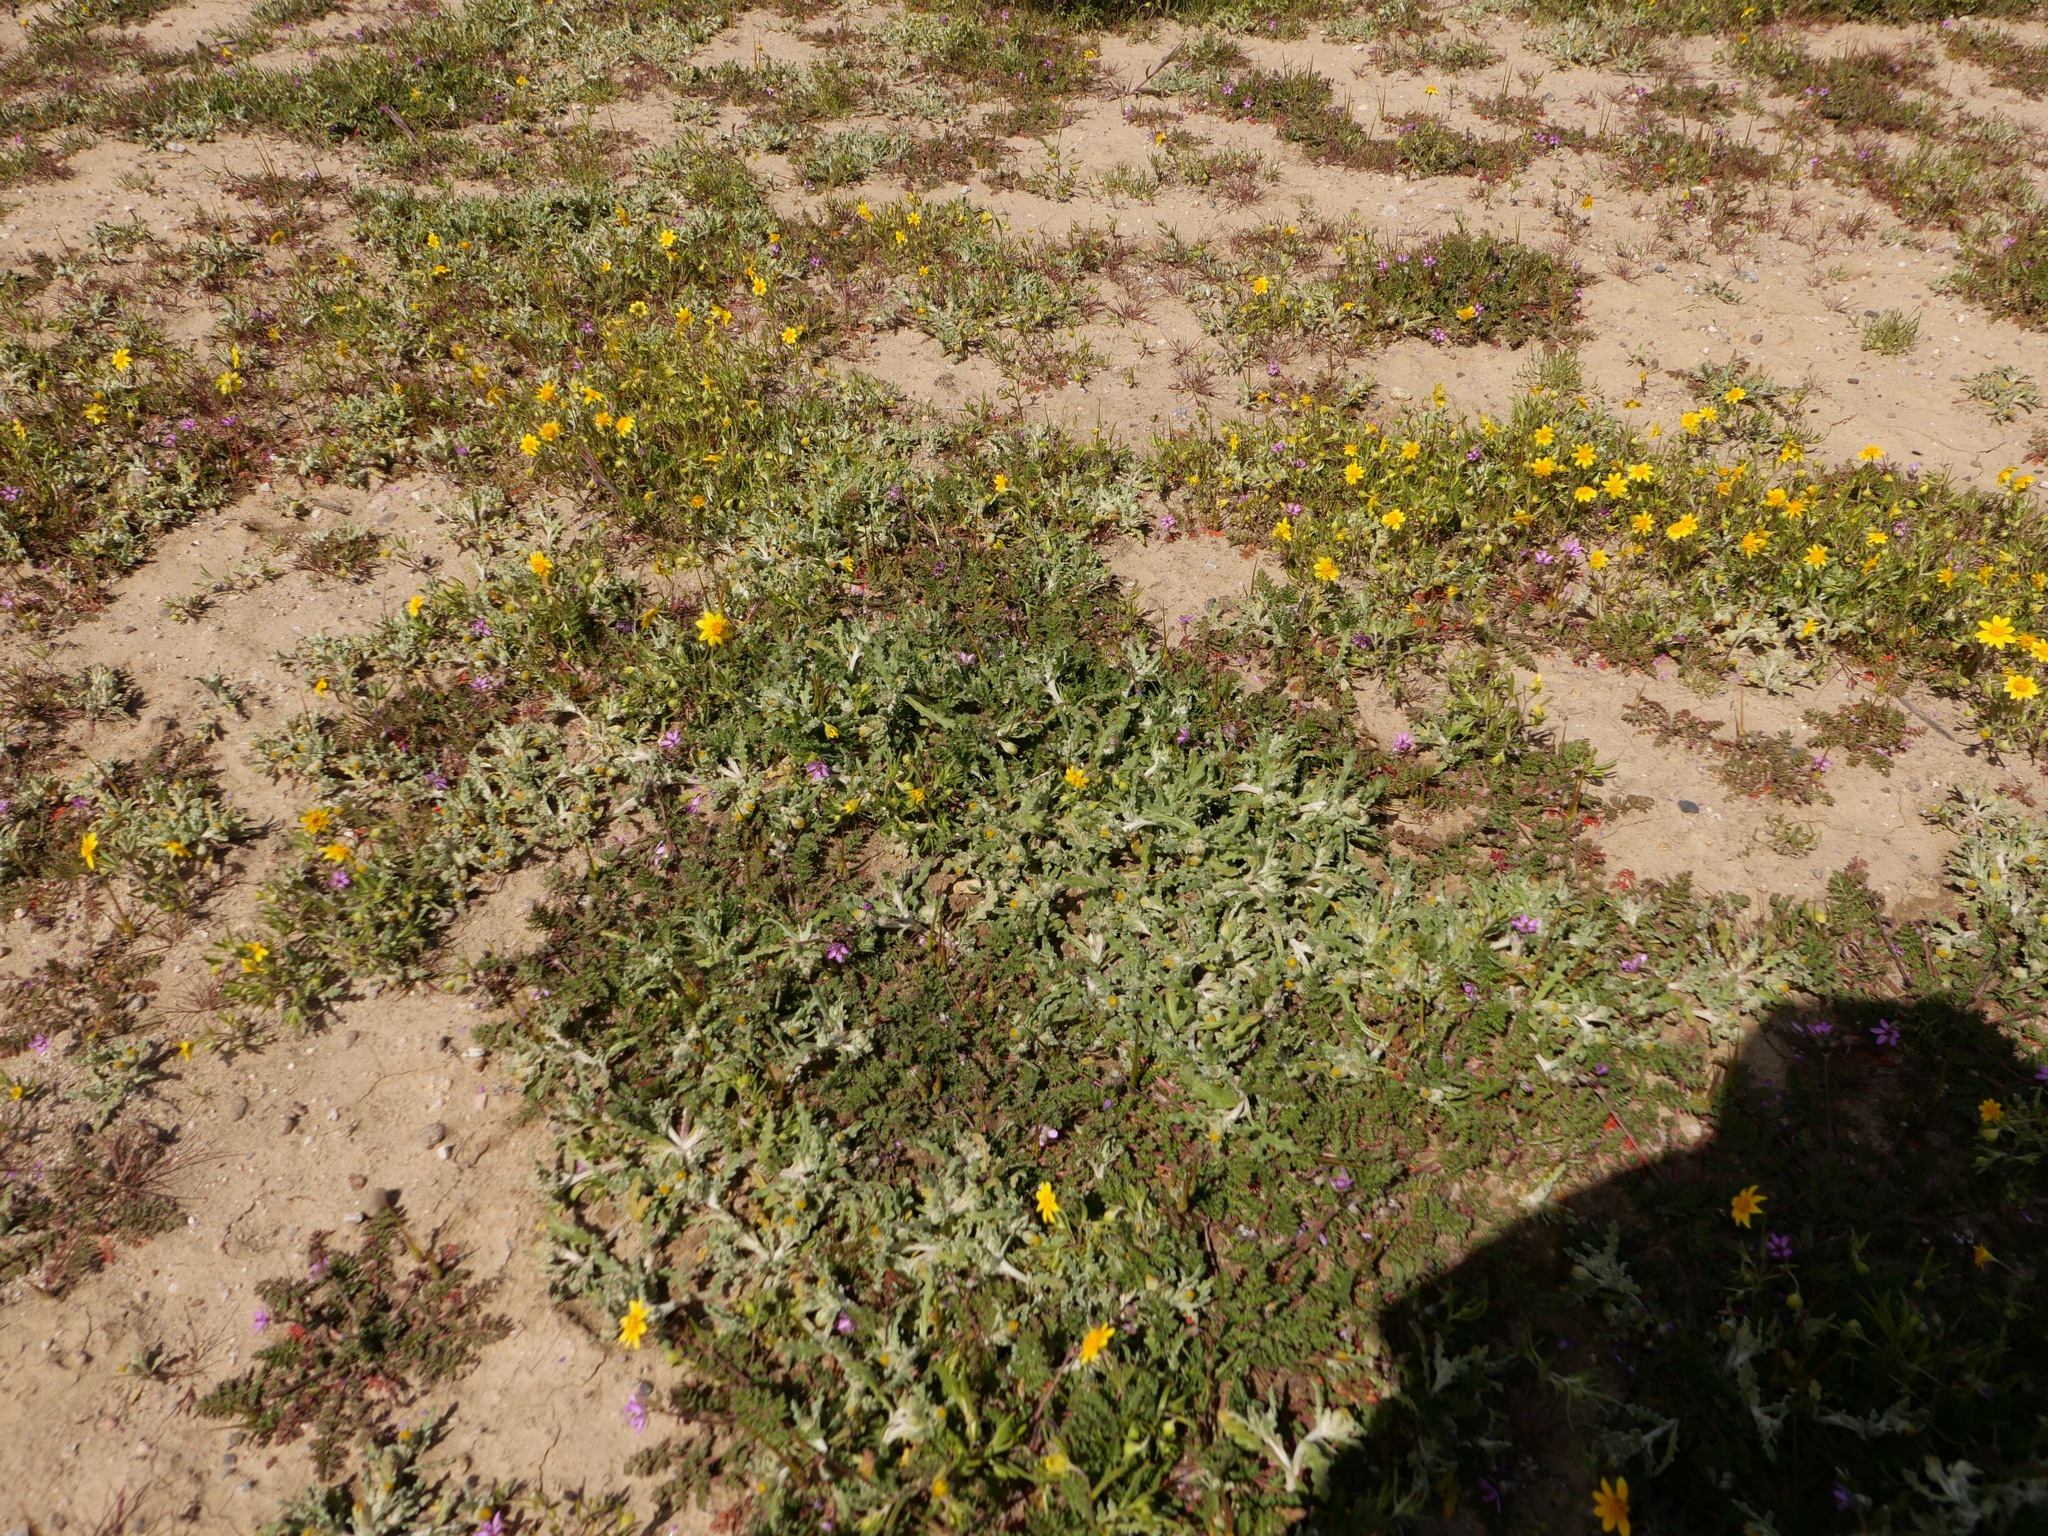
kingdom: Plantae
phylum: Tracheophyta
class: Magnoliopsida
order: Asterales
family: Asteraceae
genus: Monolopia
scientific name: Monolopia congdonii
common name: San joaquin woolly-threads
